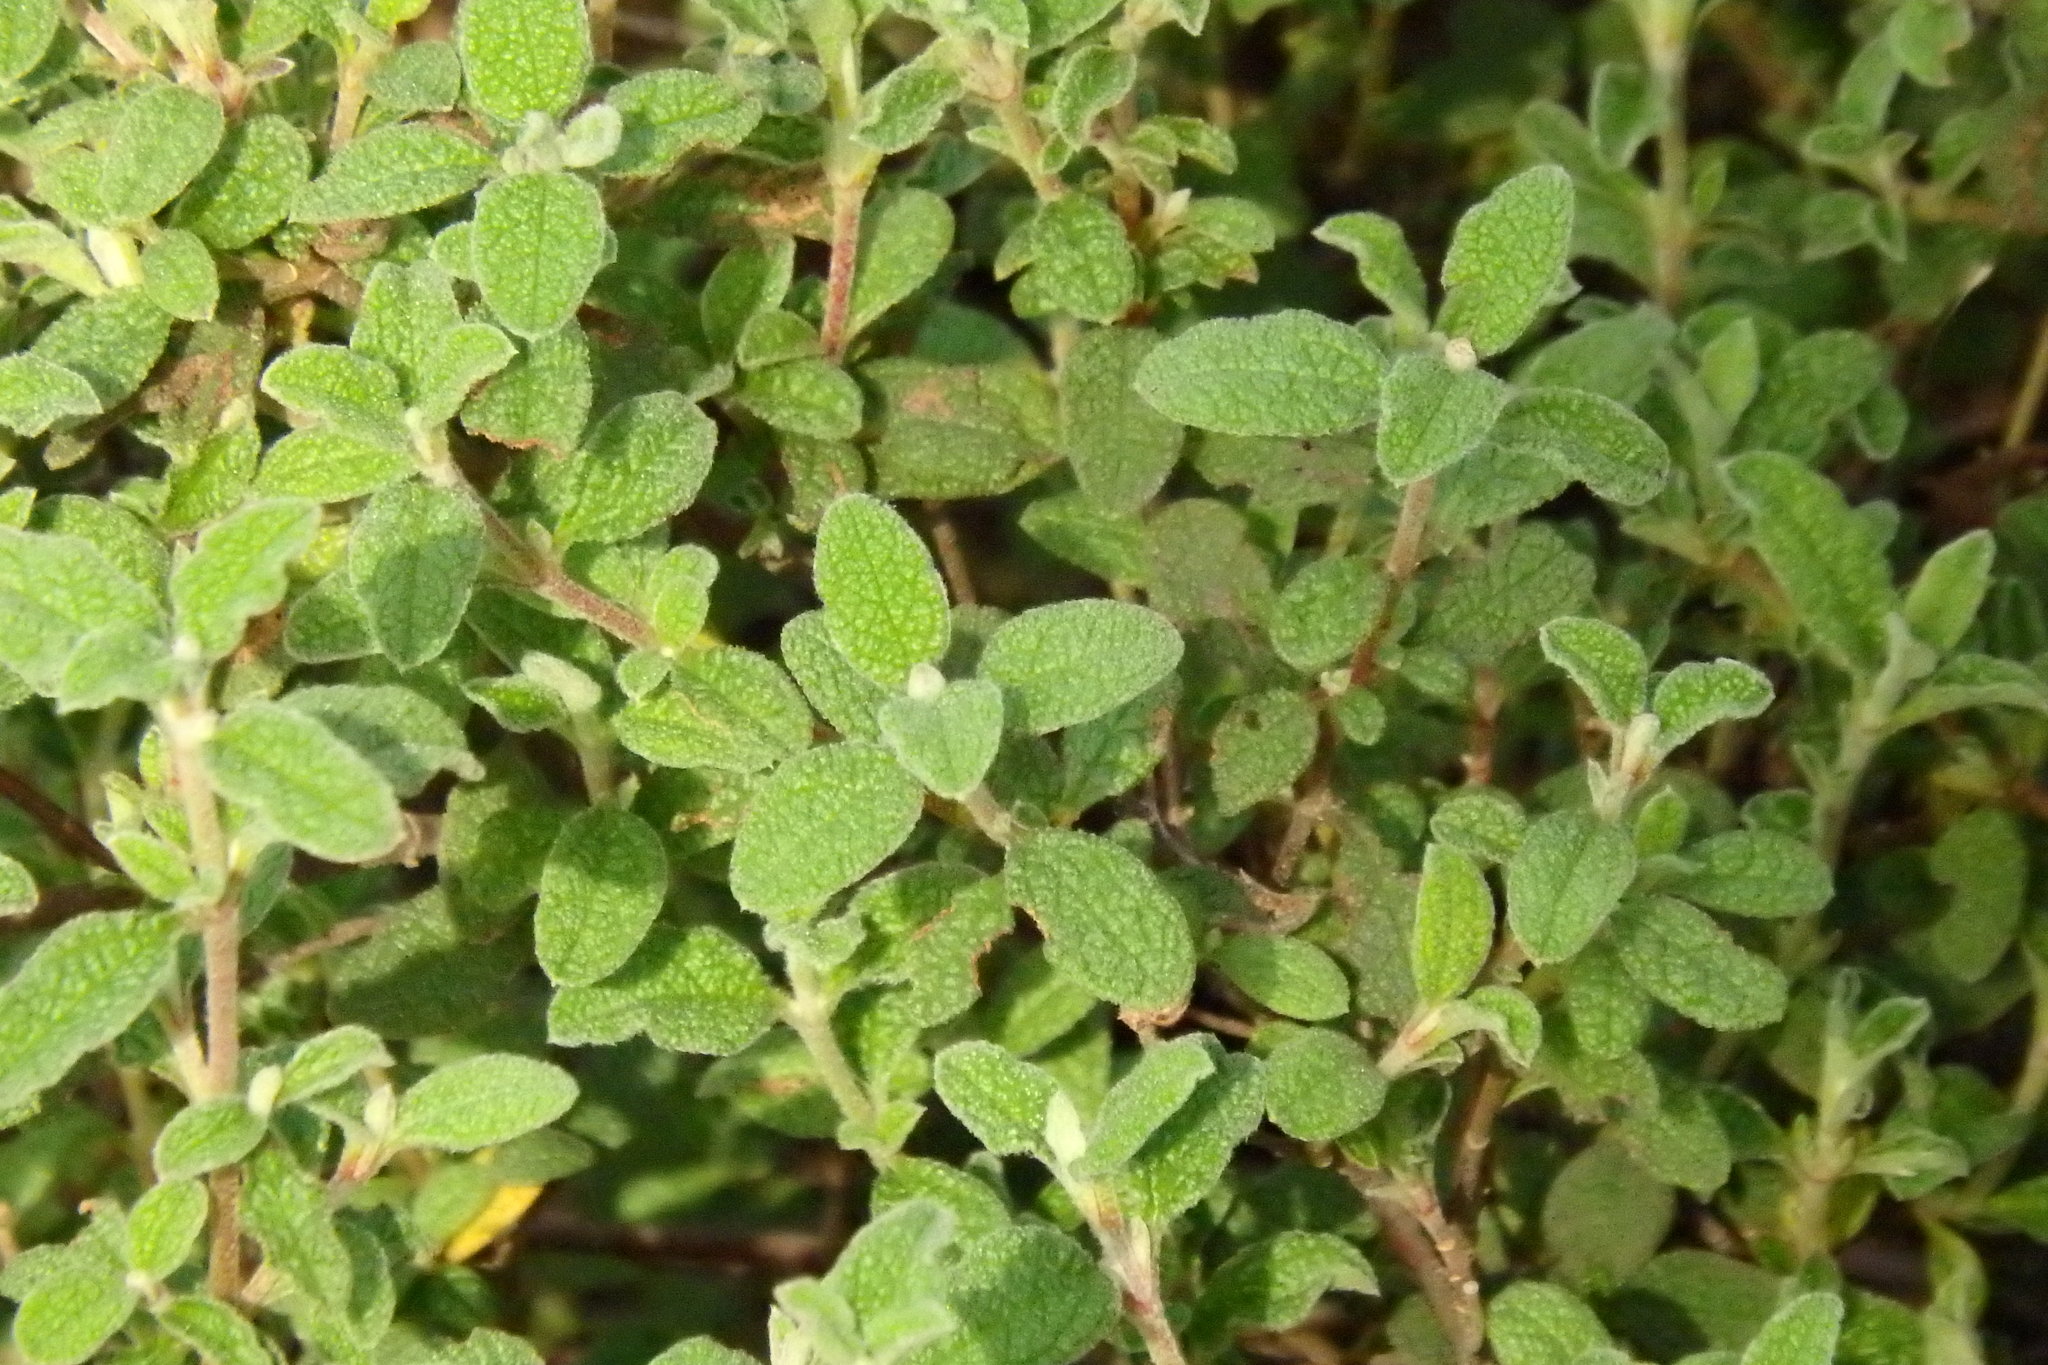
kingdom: Plantae
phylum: Tracheophyta
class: Magnoliopsida
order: Malvales
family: Cistaceae
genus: Cistus
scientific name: Cistus salviifolius
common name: Salvia cistus
